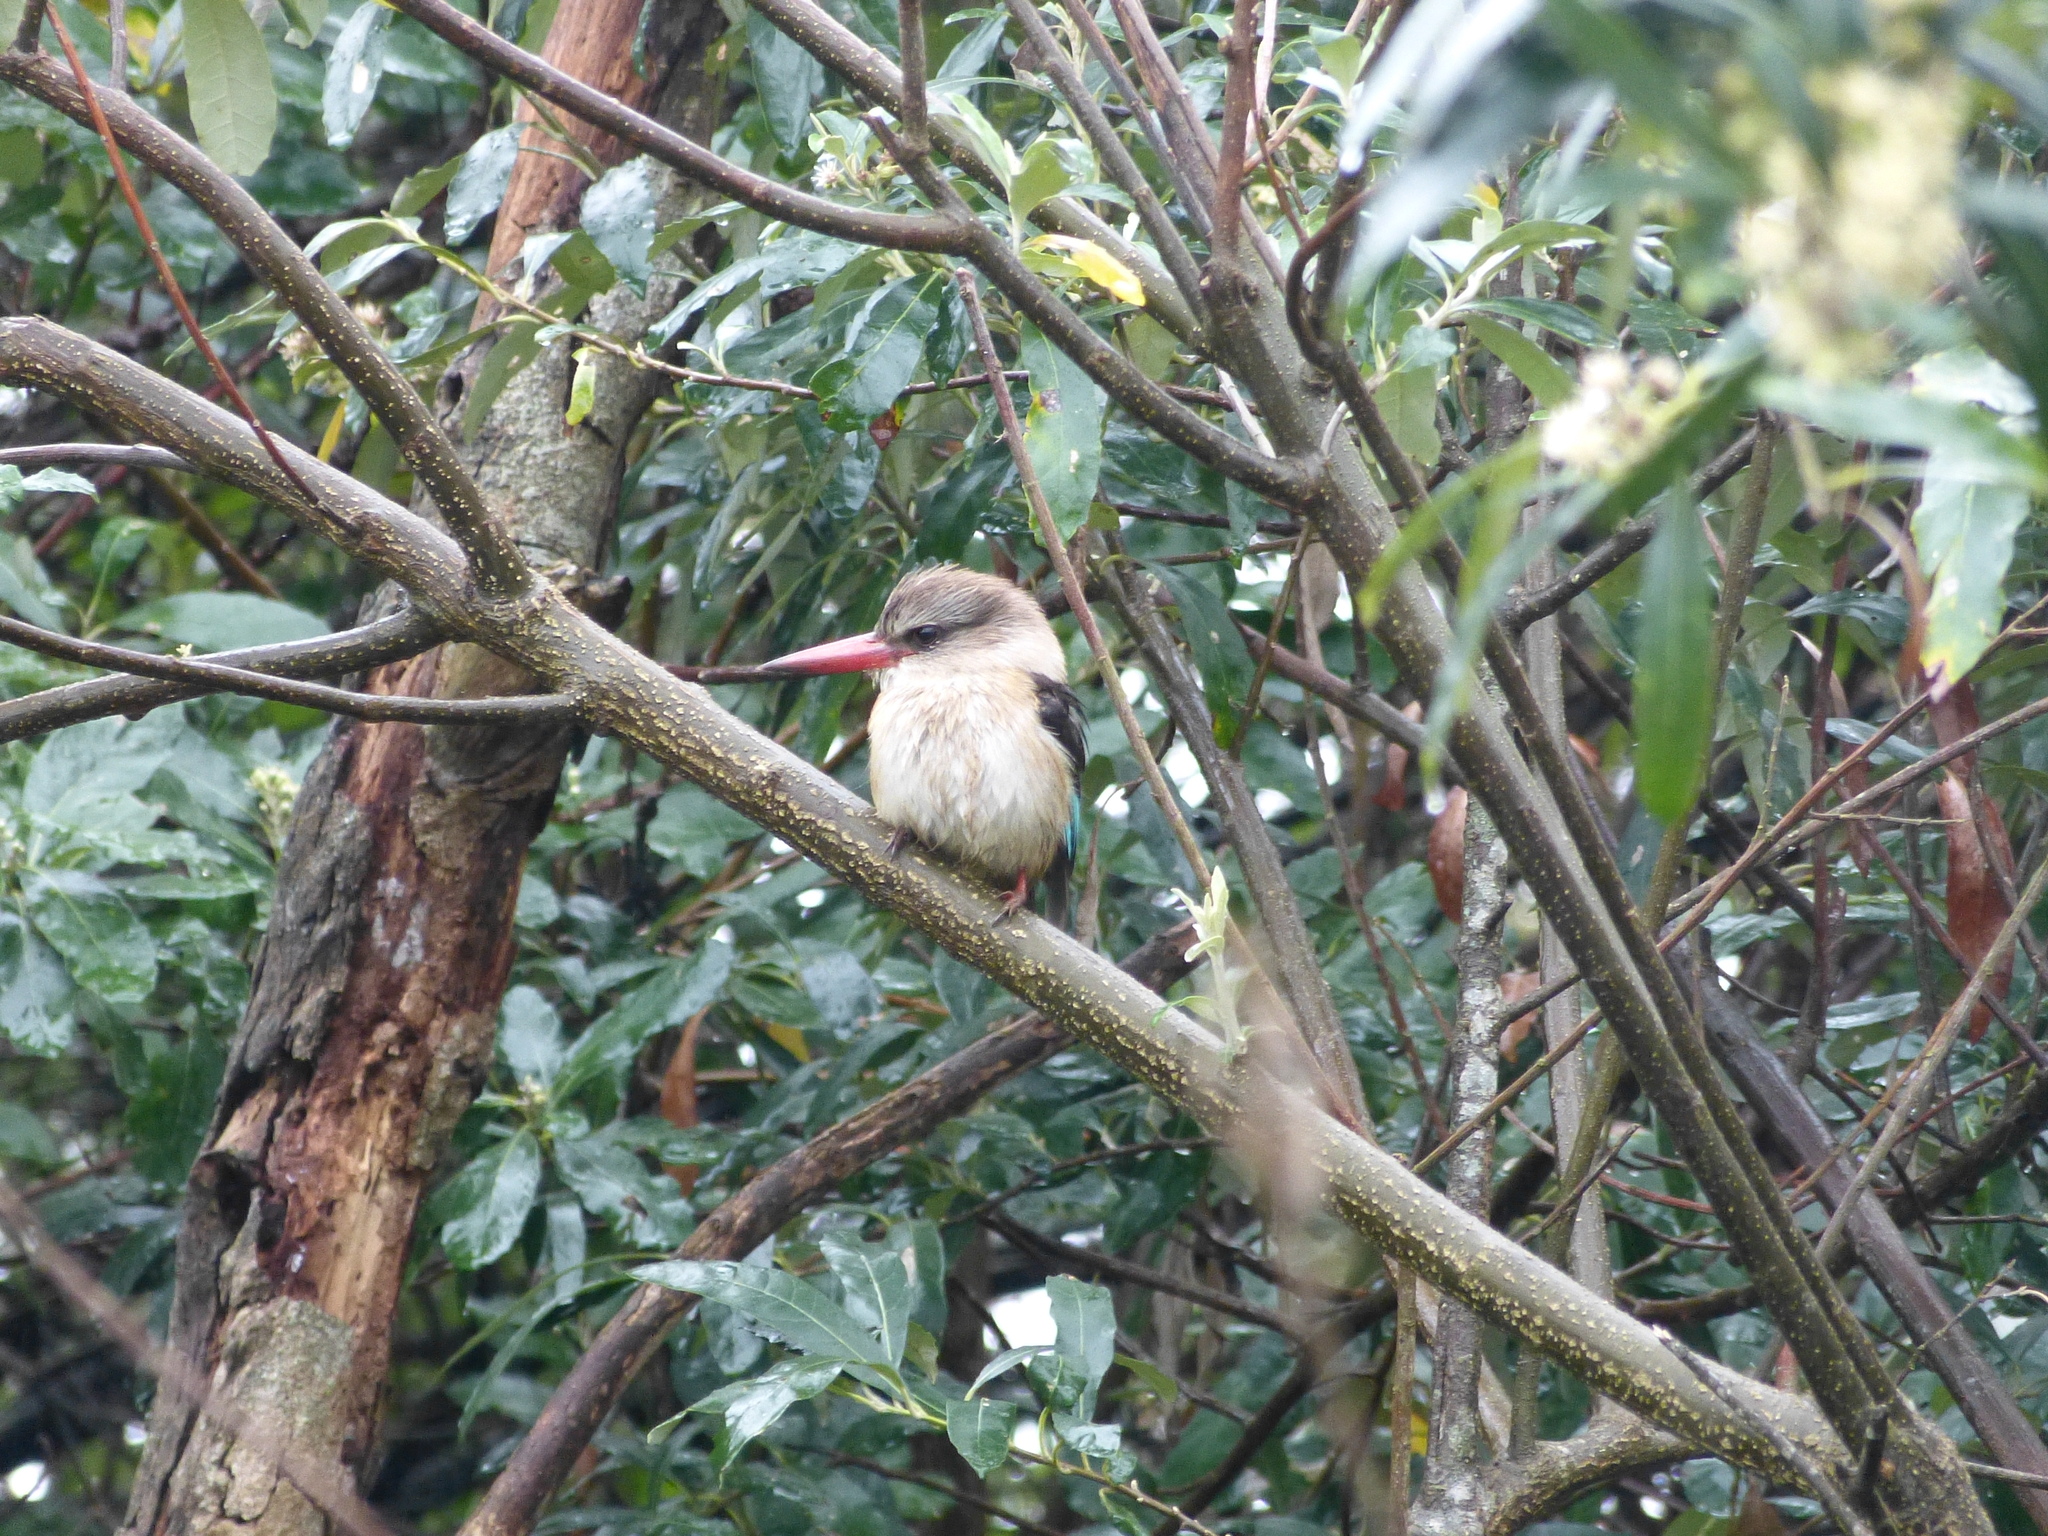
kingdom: Animalia
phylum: Chordata
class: Aves
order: Coraciiformes
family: Alcedinidae
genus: Halcyon
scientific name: Halcyon albiventris
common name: Brown-hooded kingfisher
